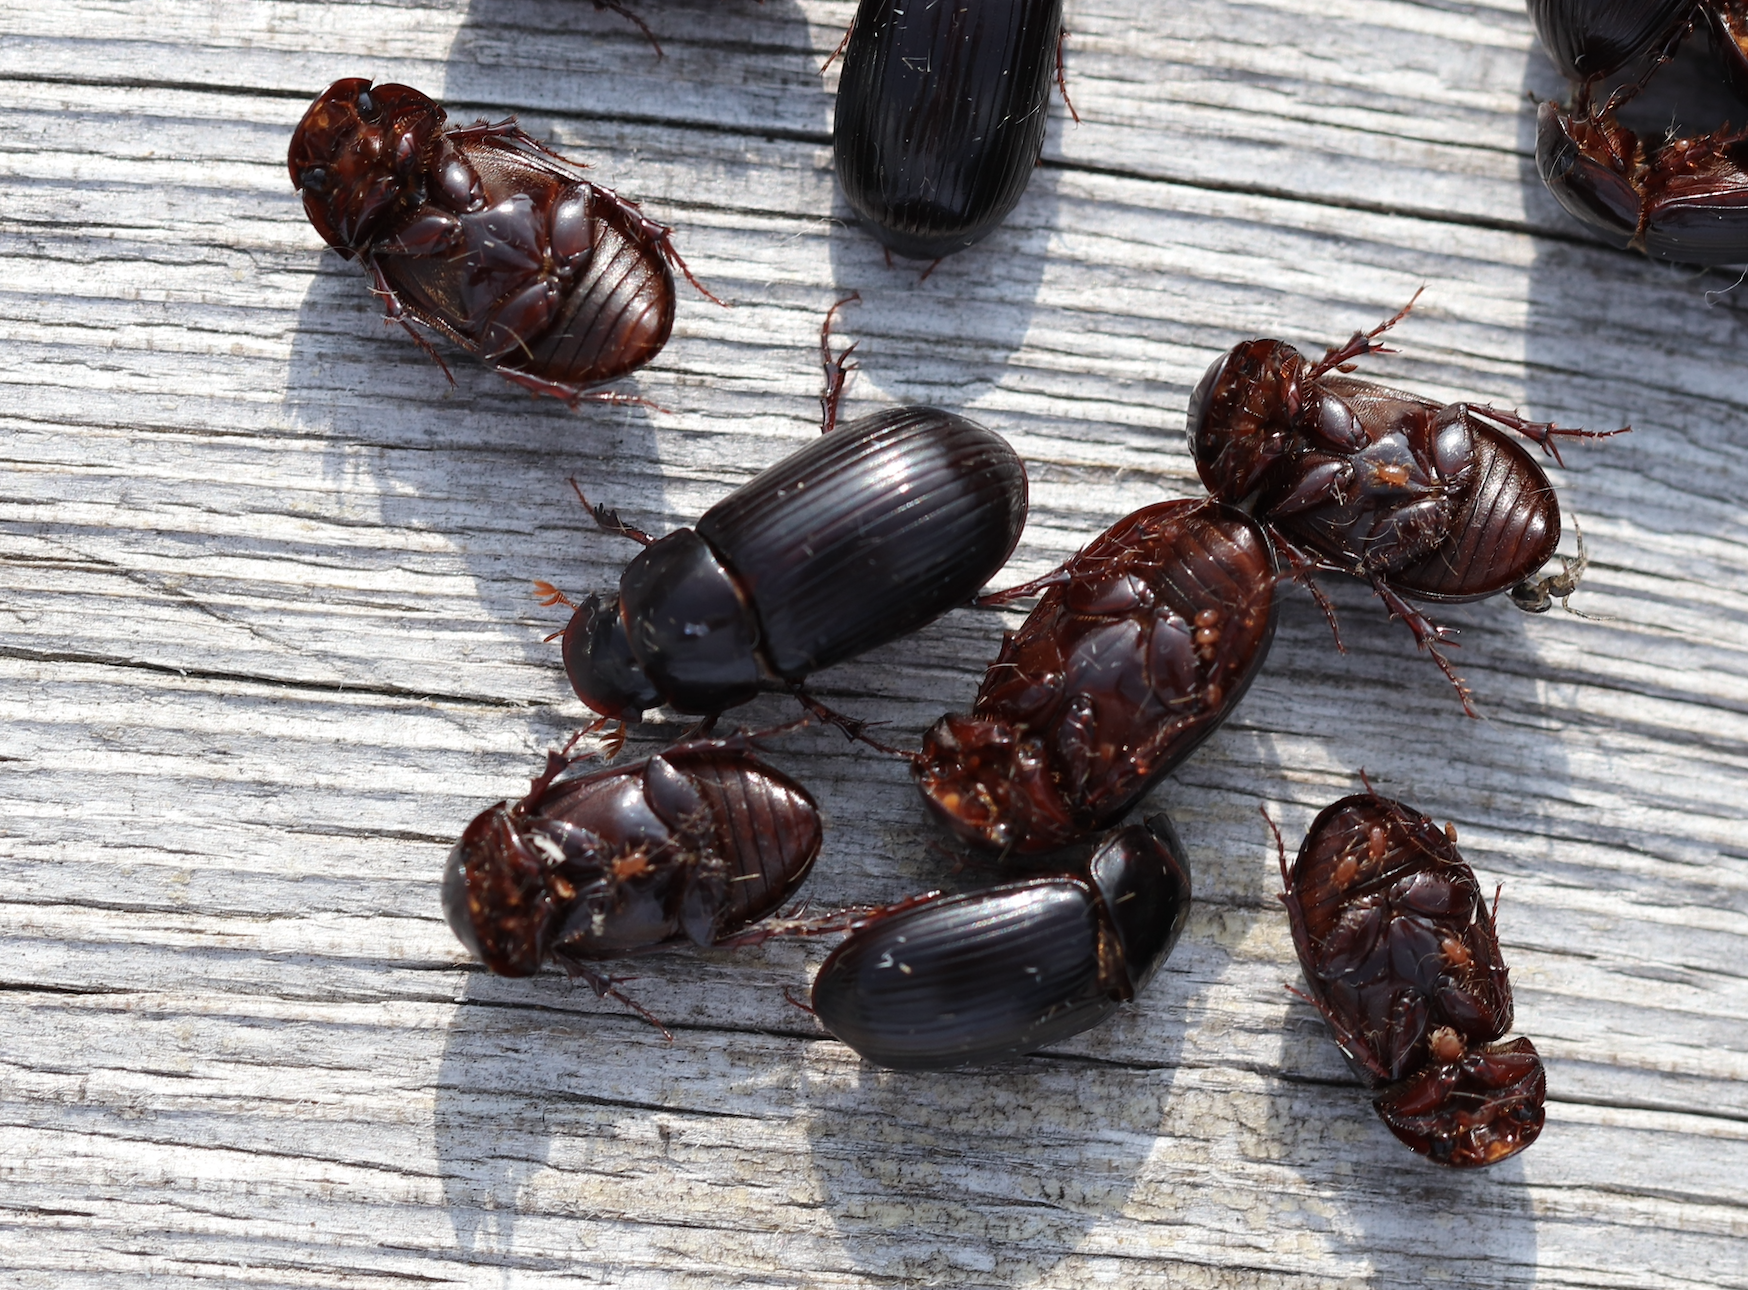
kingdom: Animalia
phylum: Arthropoda
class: Insecta
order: Coleoptera
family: Scarabaeidae
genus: Acrossus
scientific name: Acrossus rufipes
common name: Night-flying dung beetle
